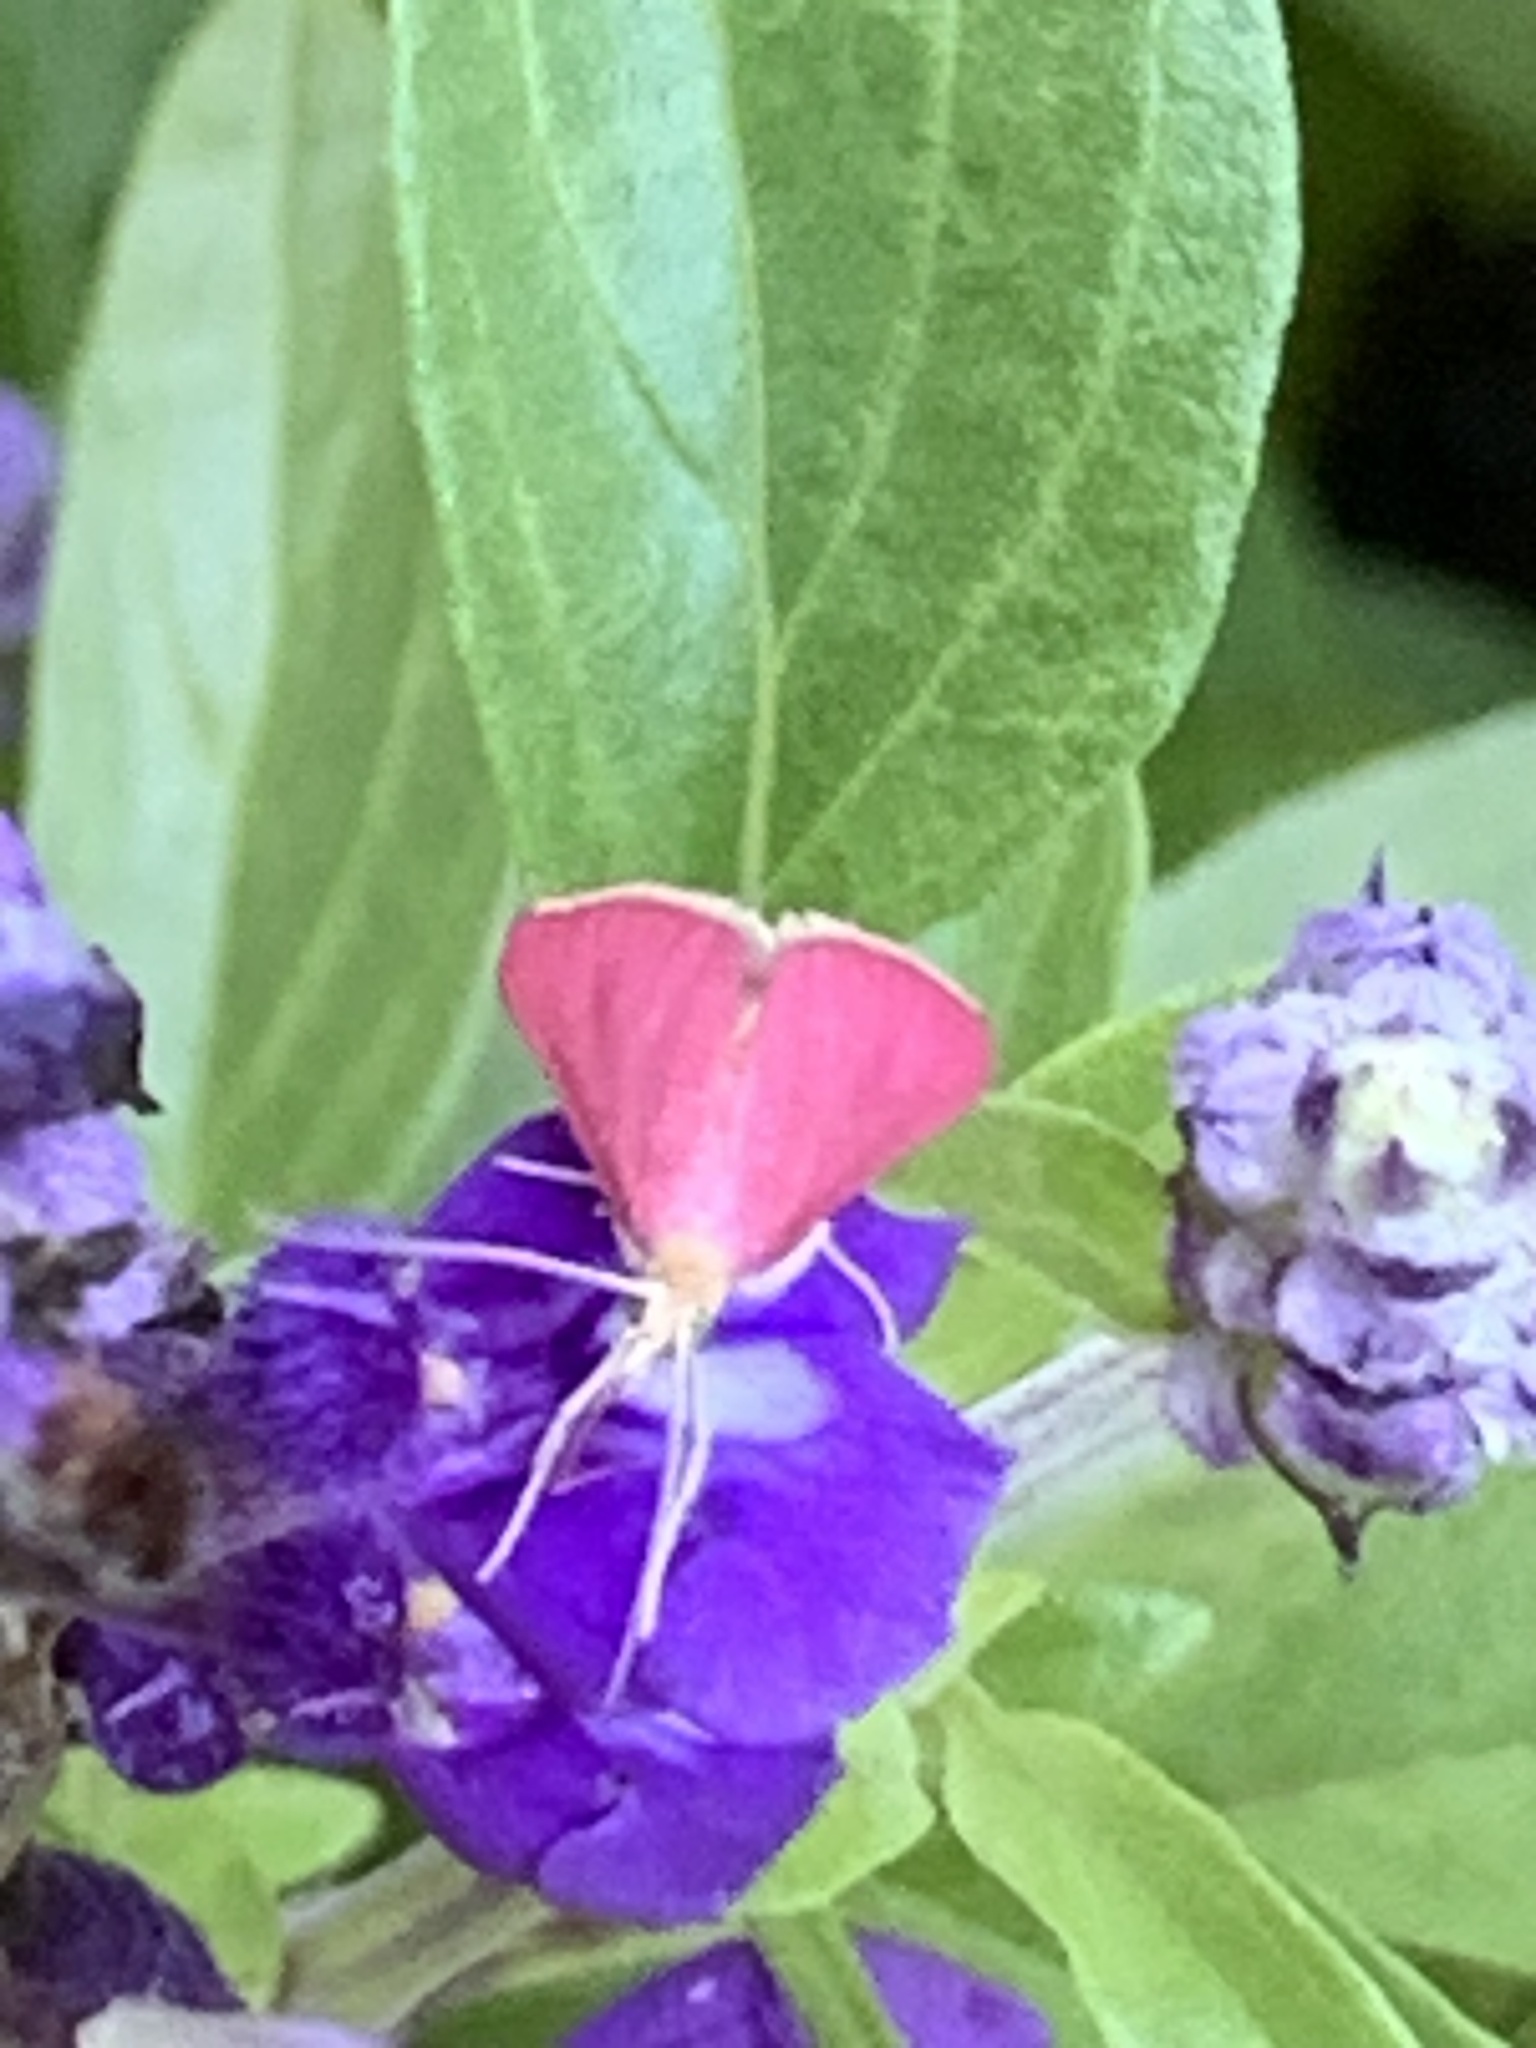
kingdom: Animalia
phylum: Arthropoda
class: Insecta
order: Lepidoptera
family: Crambidae
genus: Pyrausta
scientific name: Pyrausta inornatalis
